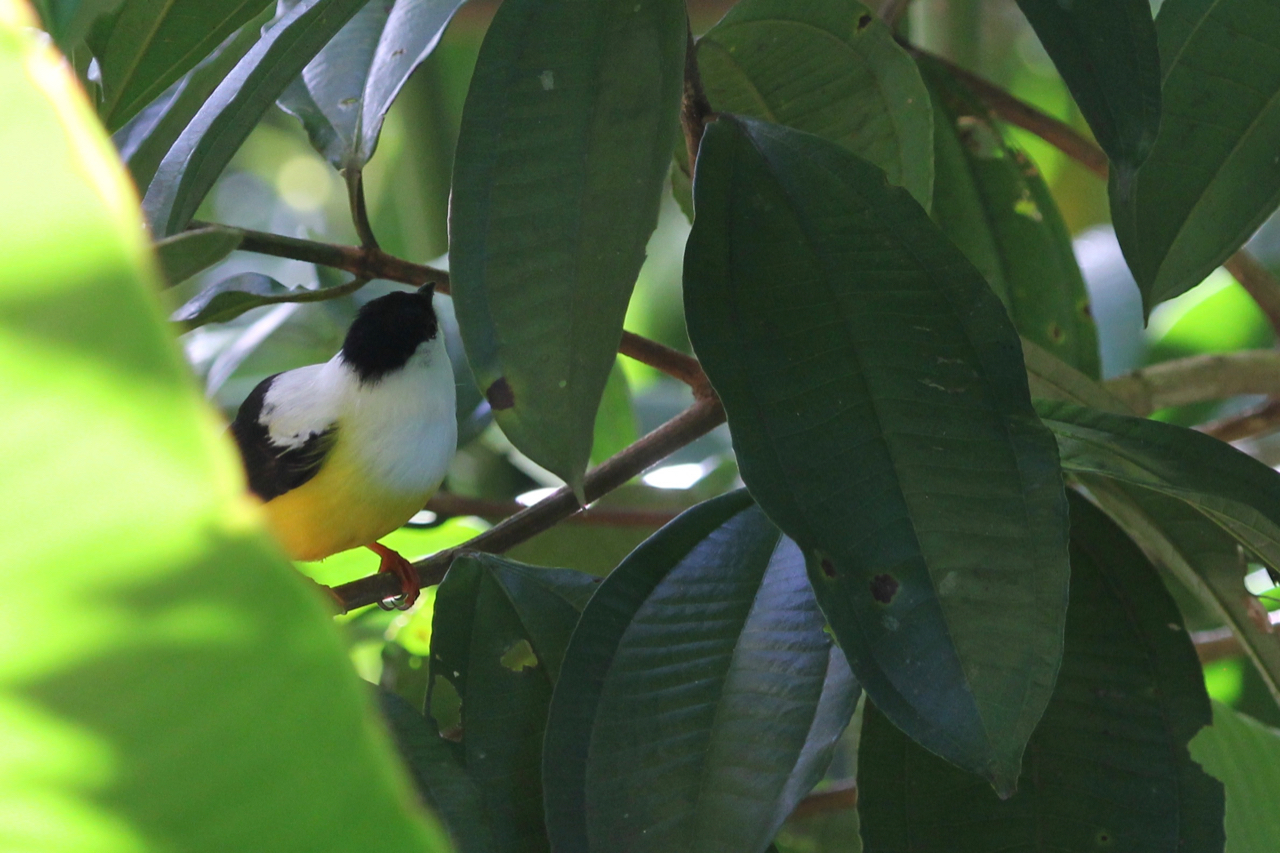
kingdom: Animalia
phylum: Chordata
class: Aves
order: Passeriformes
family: Pipridae
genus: Manacus
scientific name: Manacus candei
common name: White-collared manakin
